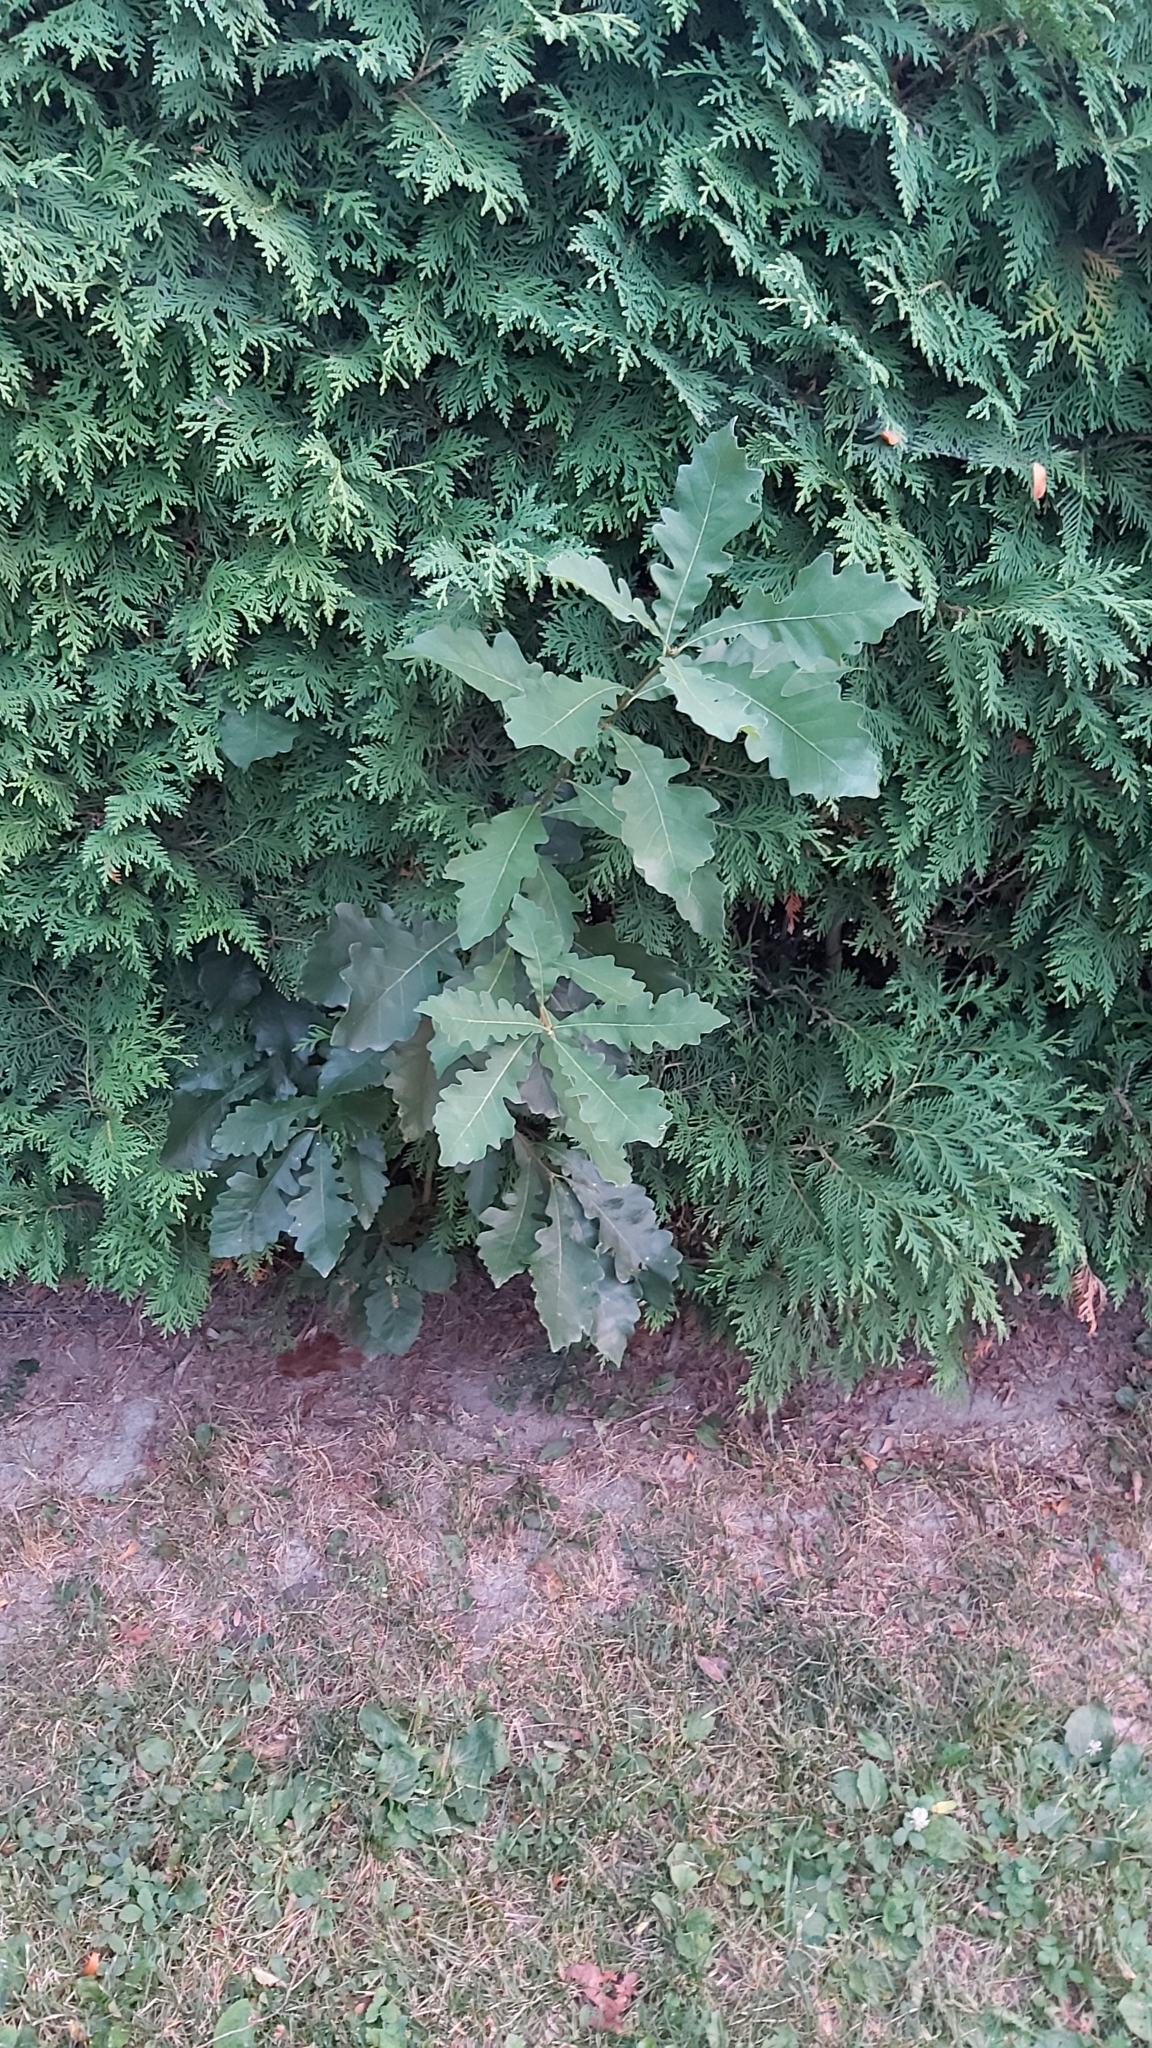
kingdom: Plantae
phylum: Tracheophyta
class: Magnoliopsida
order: Fagales
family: Fagaceae
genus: Quercus
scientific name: Quercus macrocarpa
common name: Bur oak
